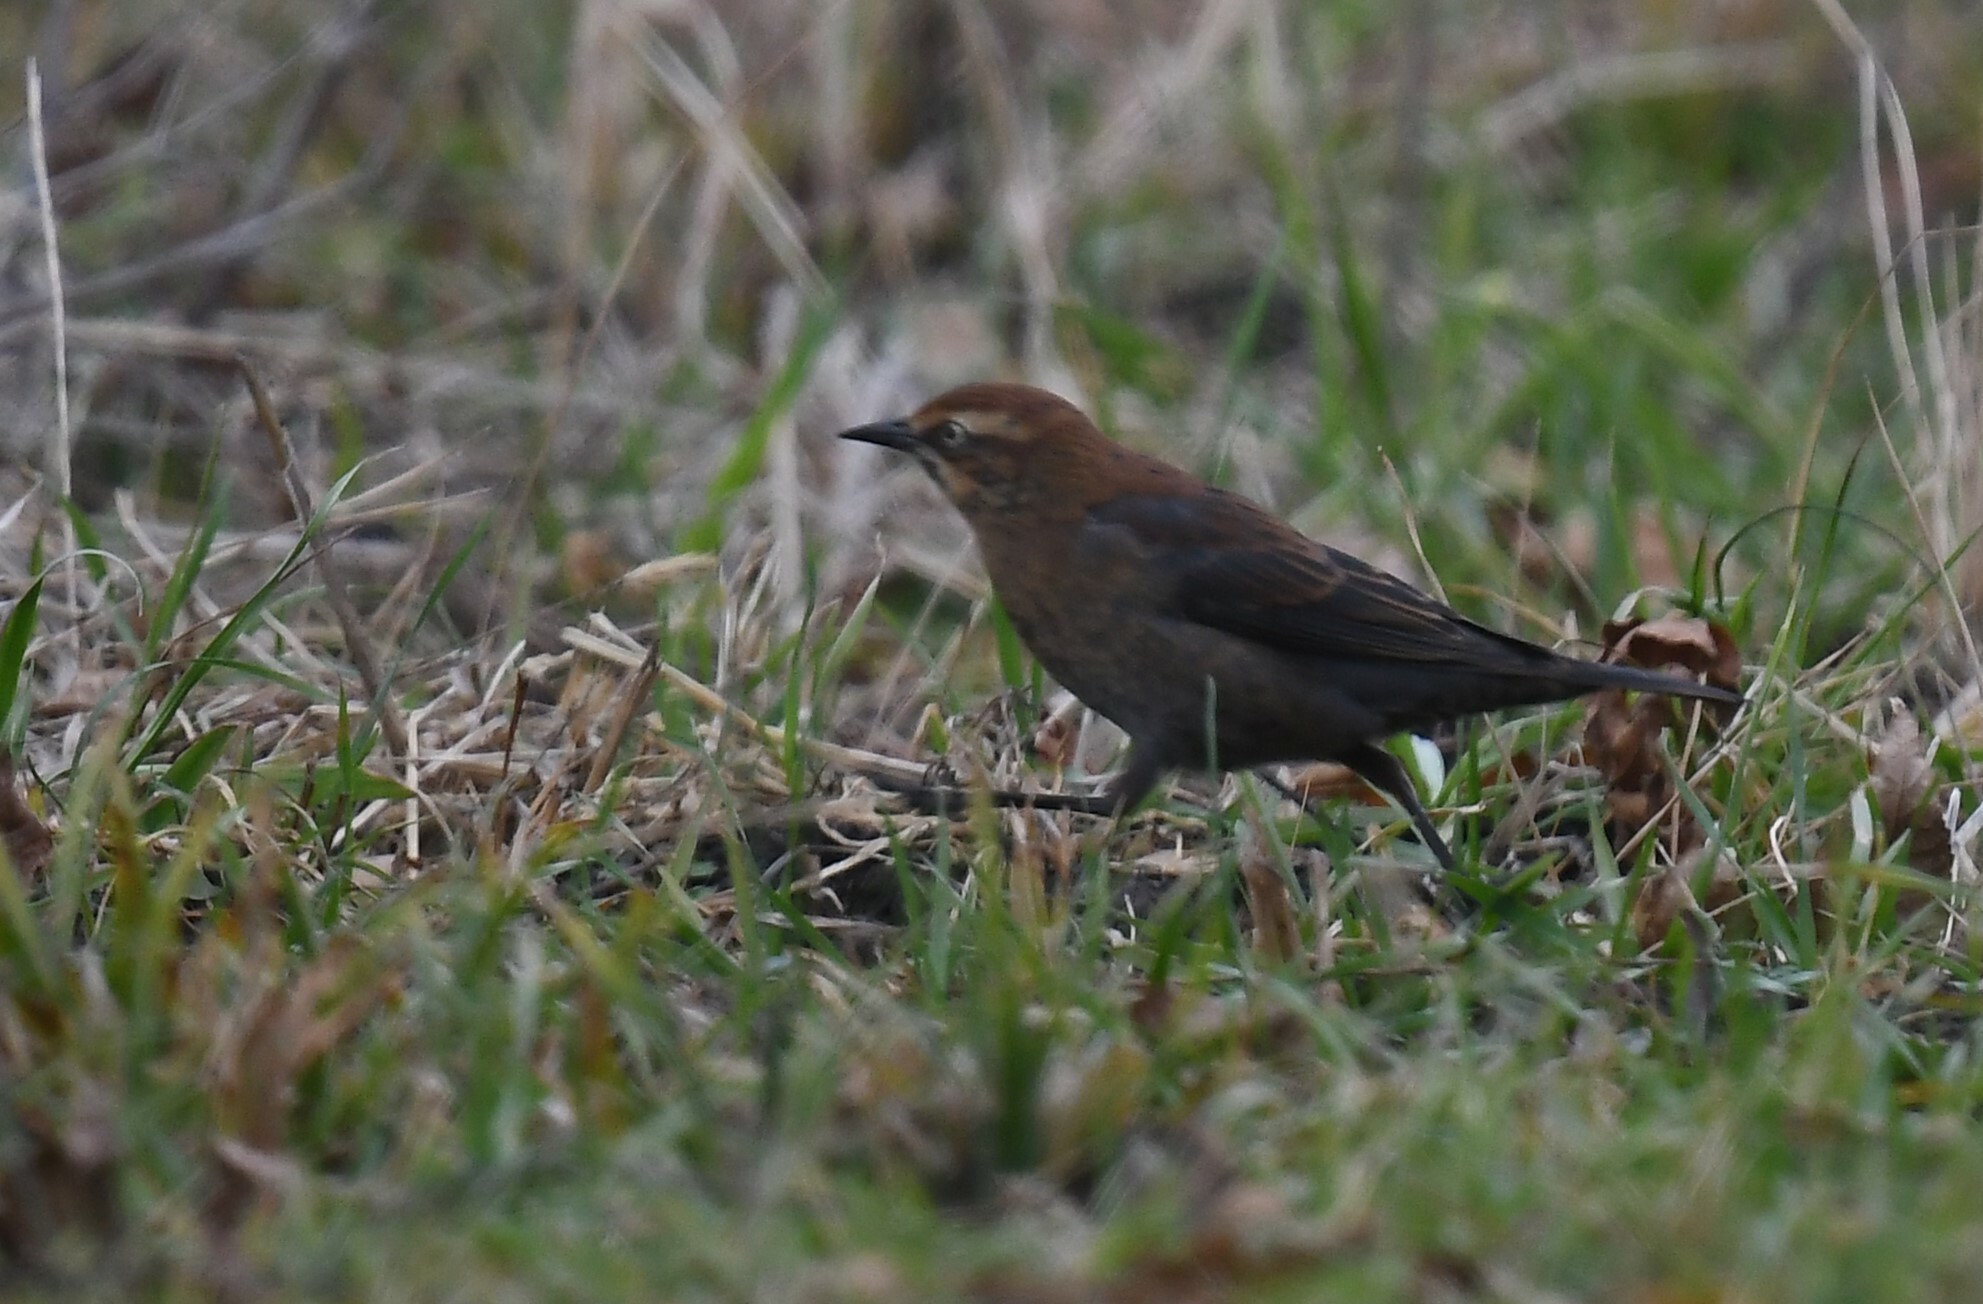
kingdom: Animalia
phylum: Chordata
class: Aves
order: Passeriformes
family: Icteridae
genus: Euphagus
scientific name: Euphagus carolinus
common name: Rusty blackbird
